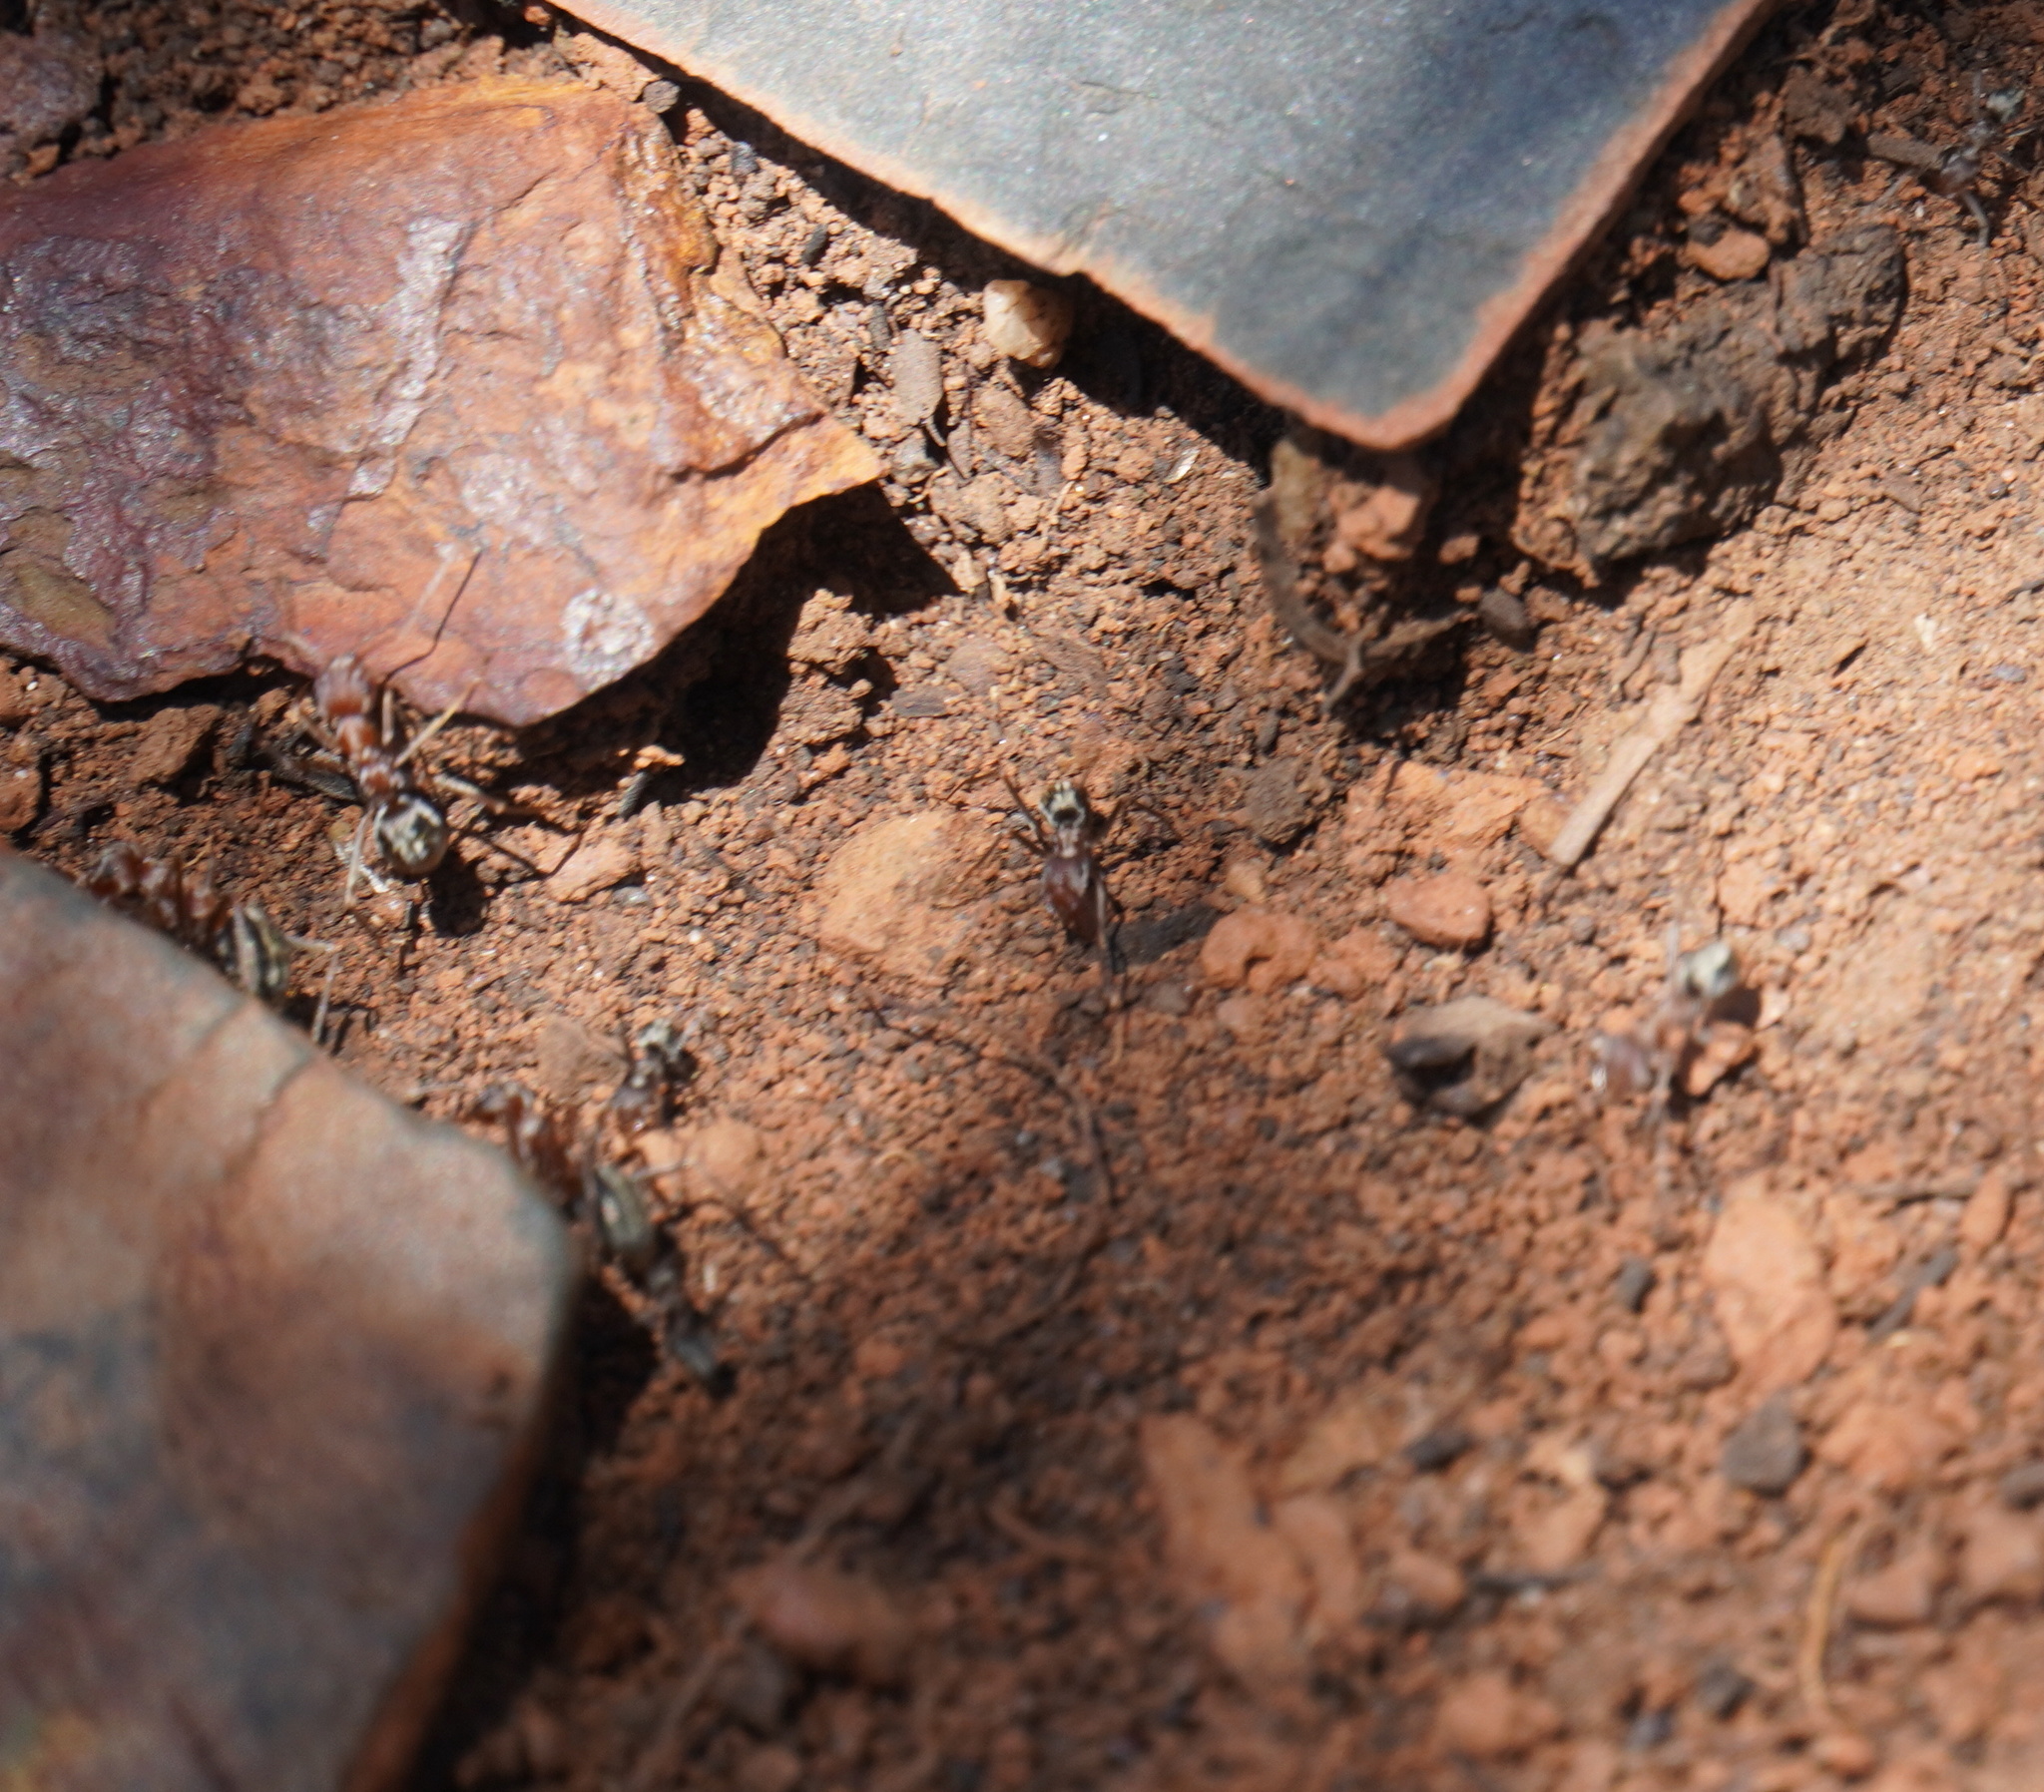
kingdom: Animalia
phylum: Arthropoda
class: Insecta
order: Hymenoptera
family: Formicidae
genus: Anoplolepis
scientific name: Anoplolepis custodiens
